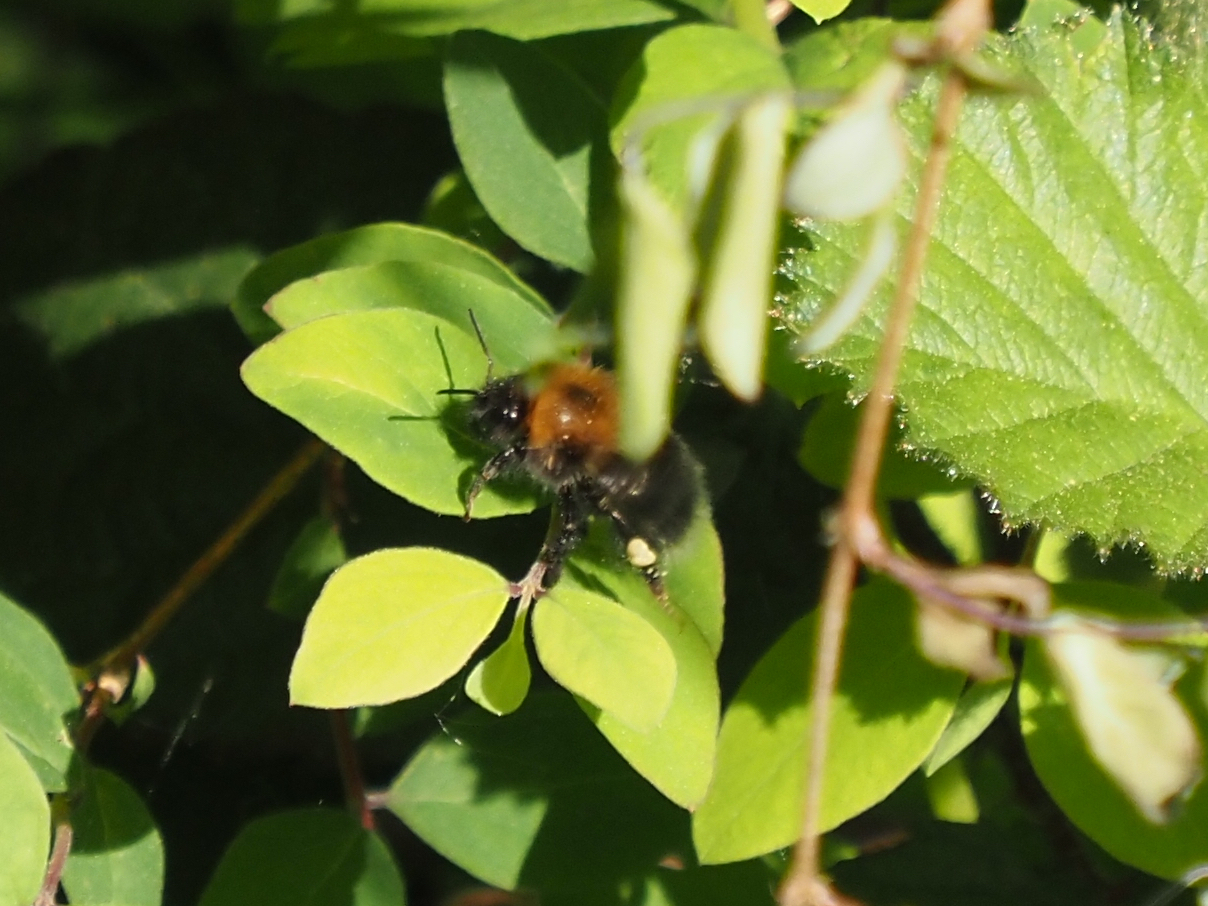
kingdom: Animalia
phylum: Arthropoda
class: Insecta
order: Hymenoptera
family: Apidae
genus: Bombus
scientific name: Bombus hypnorum
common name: New garden bumblebee
